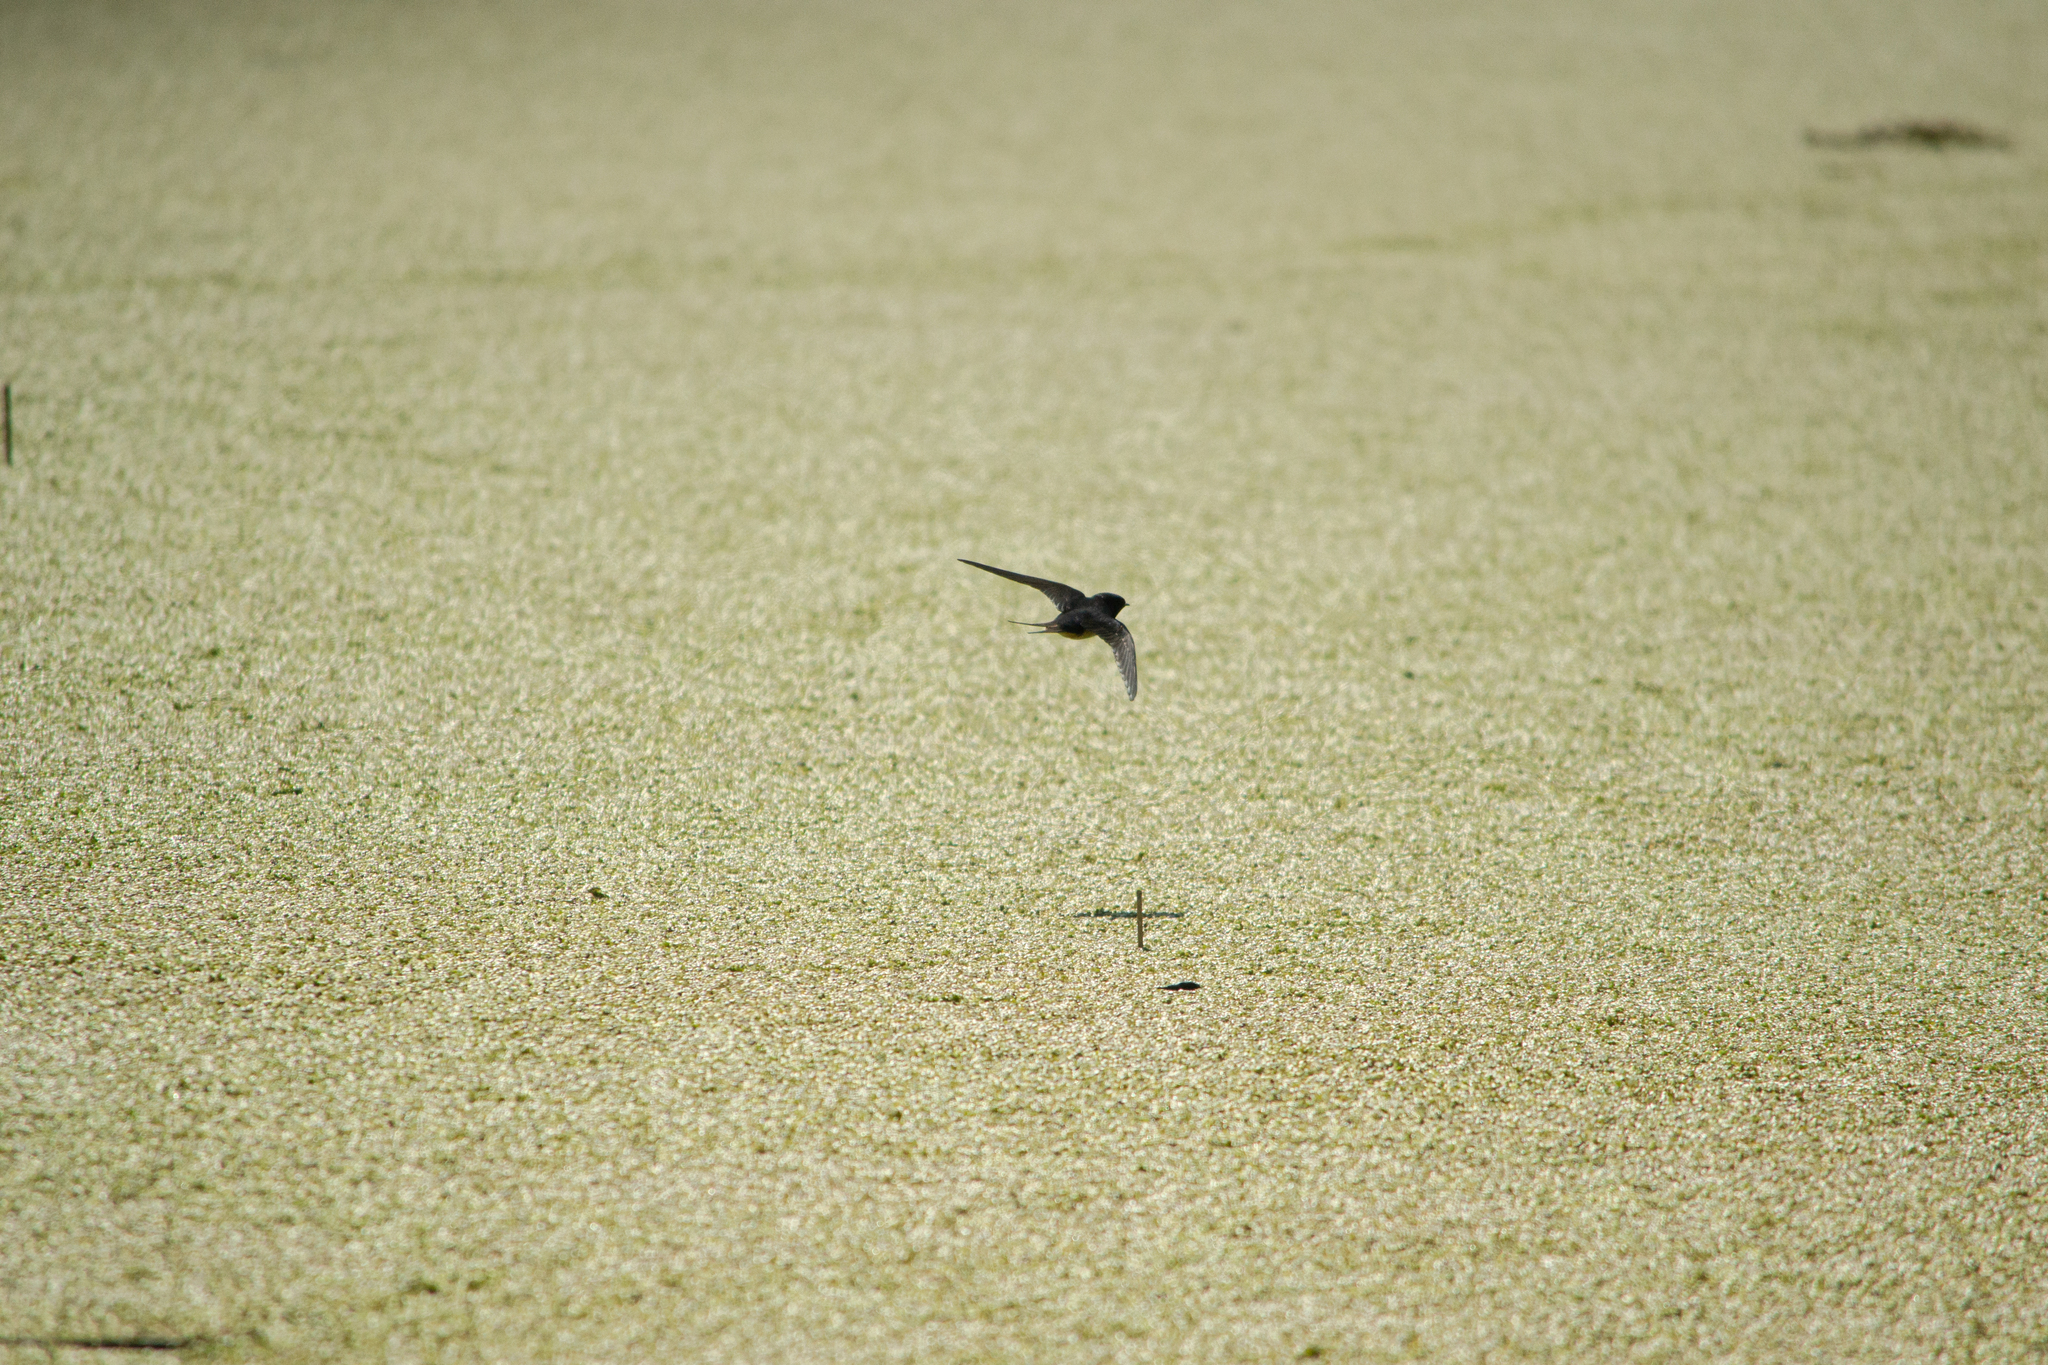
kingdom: Animalia
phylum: Chordata
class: Aves
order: Passeriformes
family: Hirundinidae
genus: Hirundo
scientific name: Hirundo rustica
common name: Barn swallow
